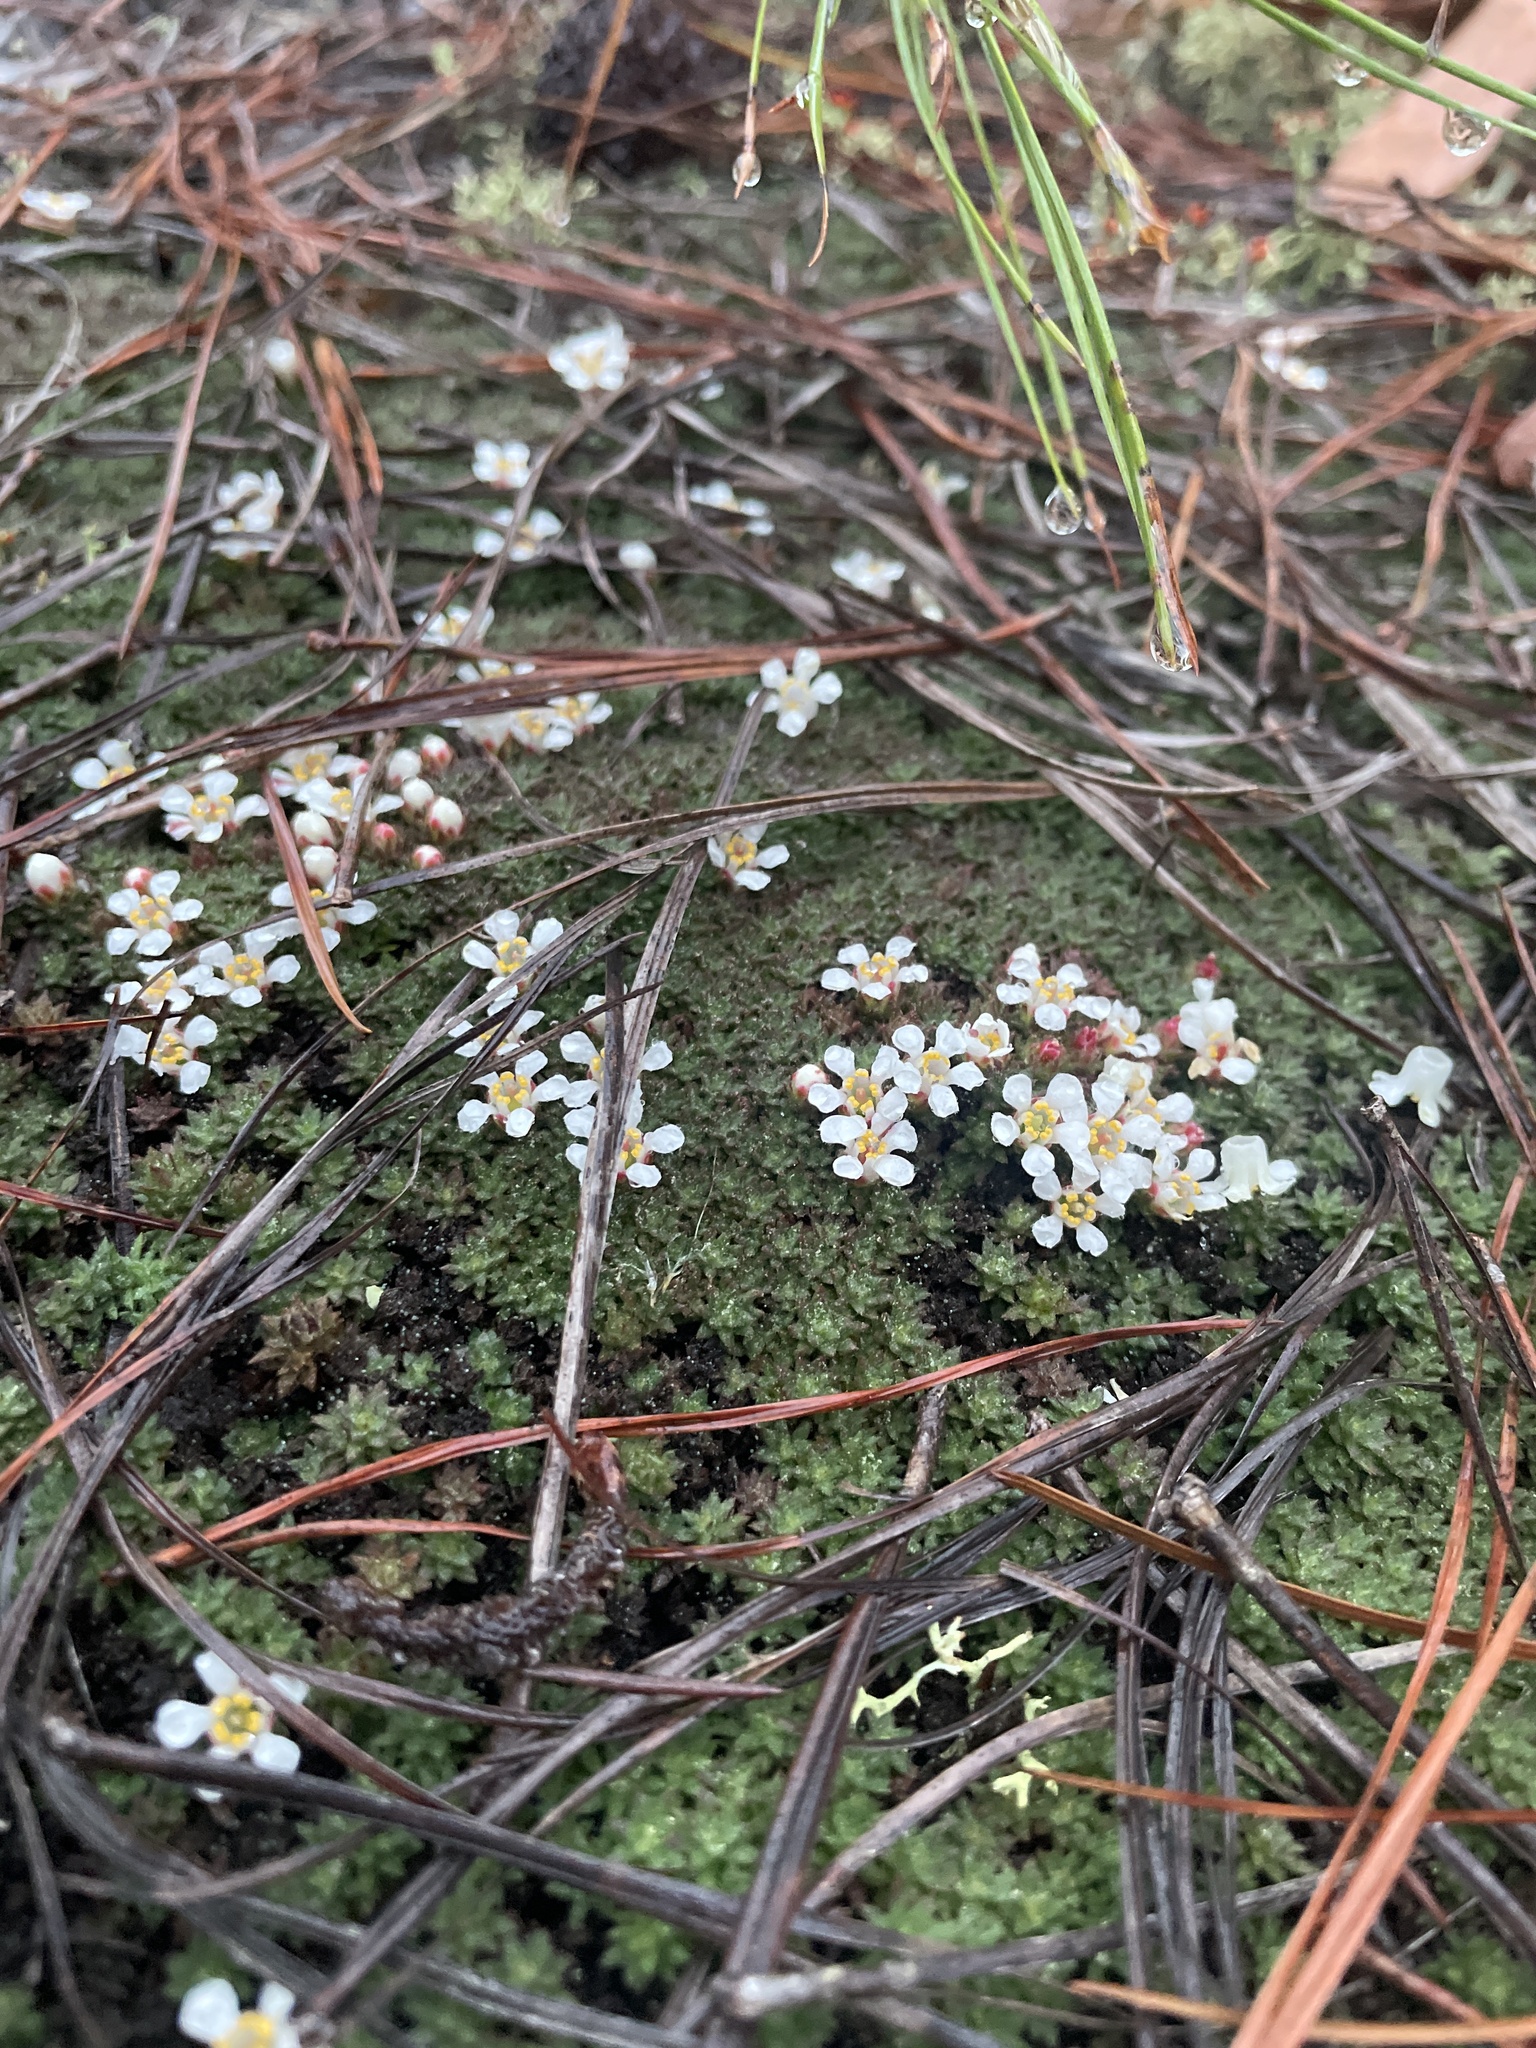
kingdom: Plantae
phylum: Tracheophyta
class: Magnoliopsida
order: Ericales
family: Diapensiaceae
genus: Pyxidanthera
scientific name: Pyxidanthera brevifolia
